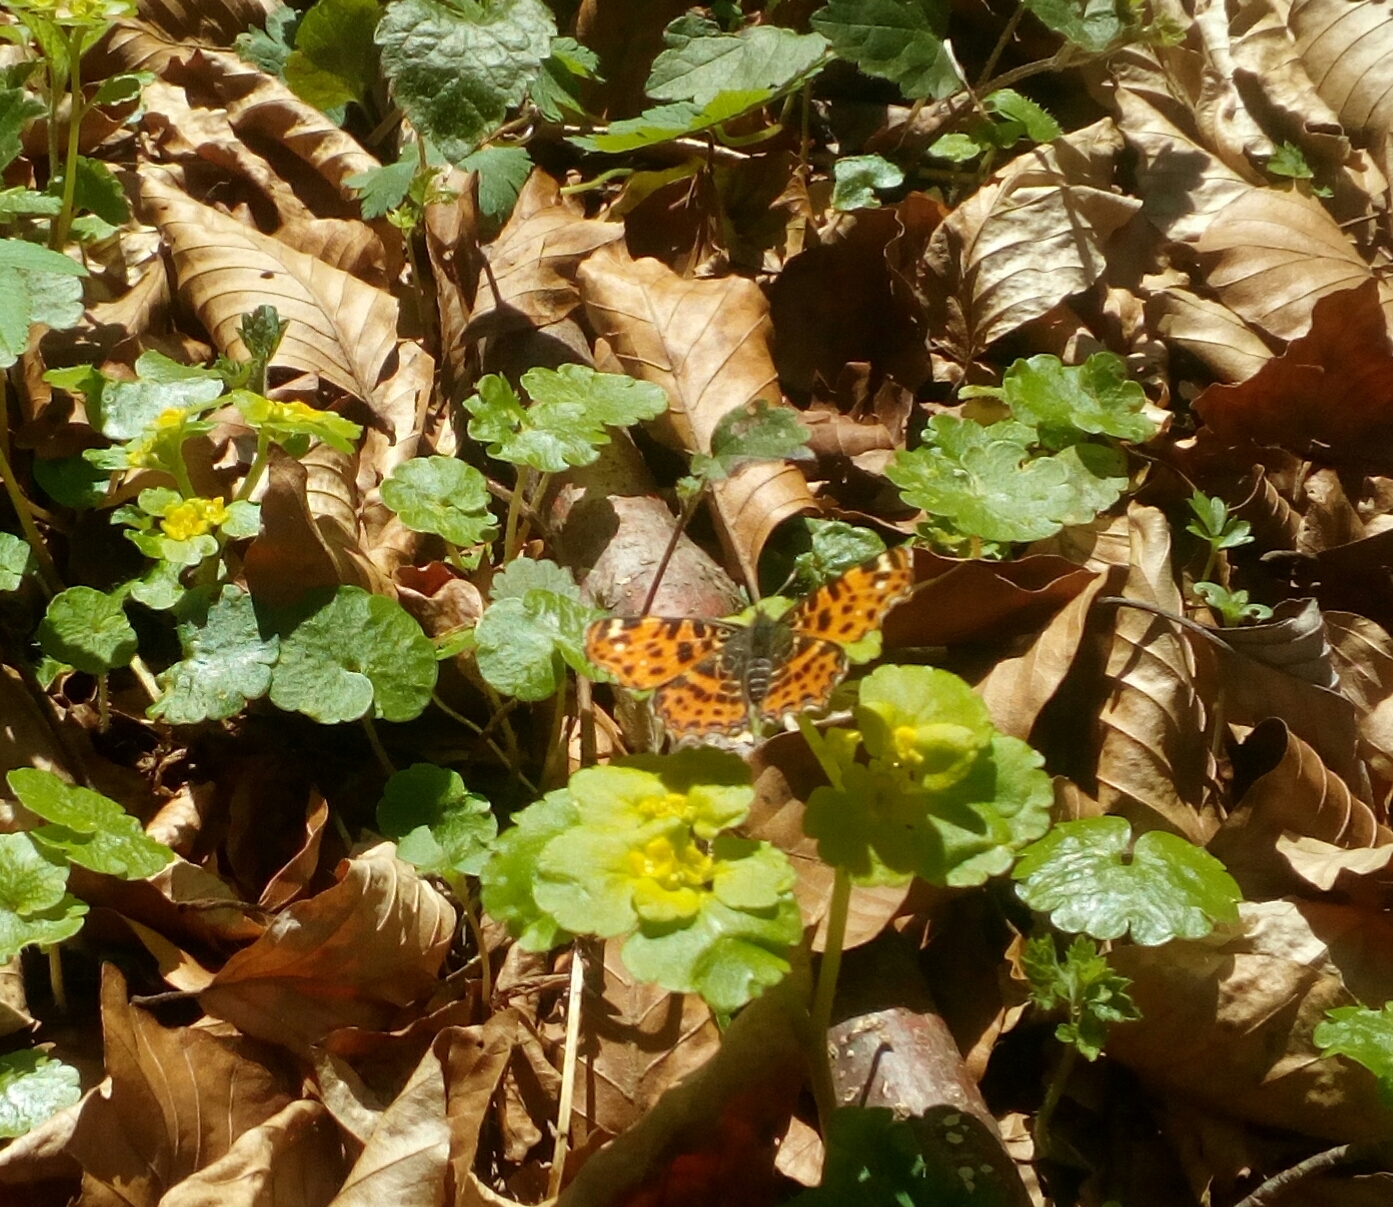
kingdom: Animalia
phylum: Arthropoda
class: Insecta
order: Lepidoptera
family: Nymphalidae
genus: Araschnia
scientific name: Araschnia levana
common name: Map butterfly
